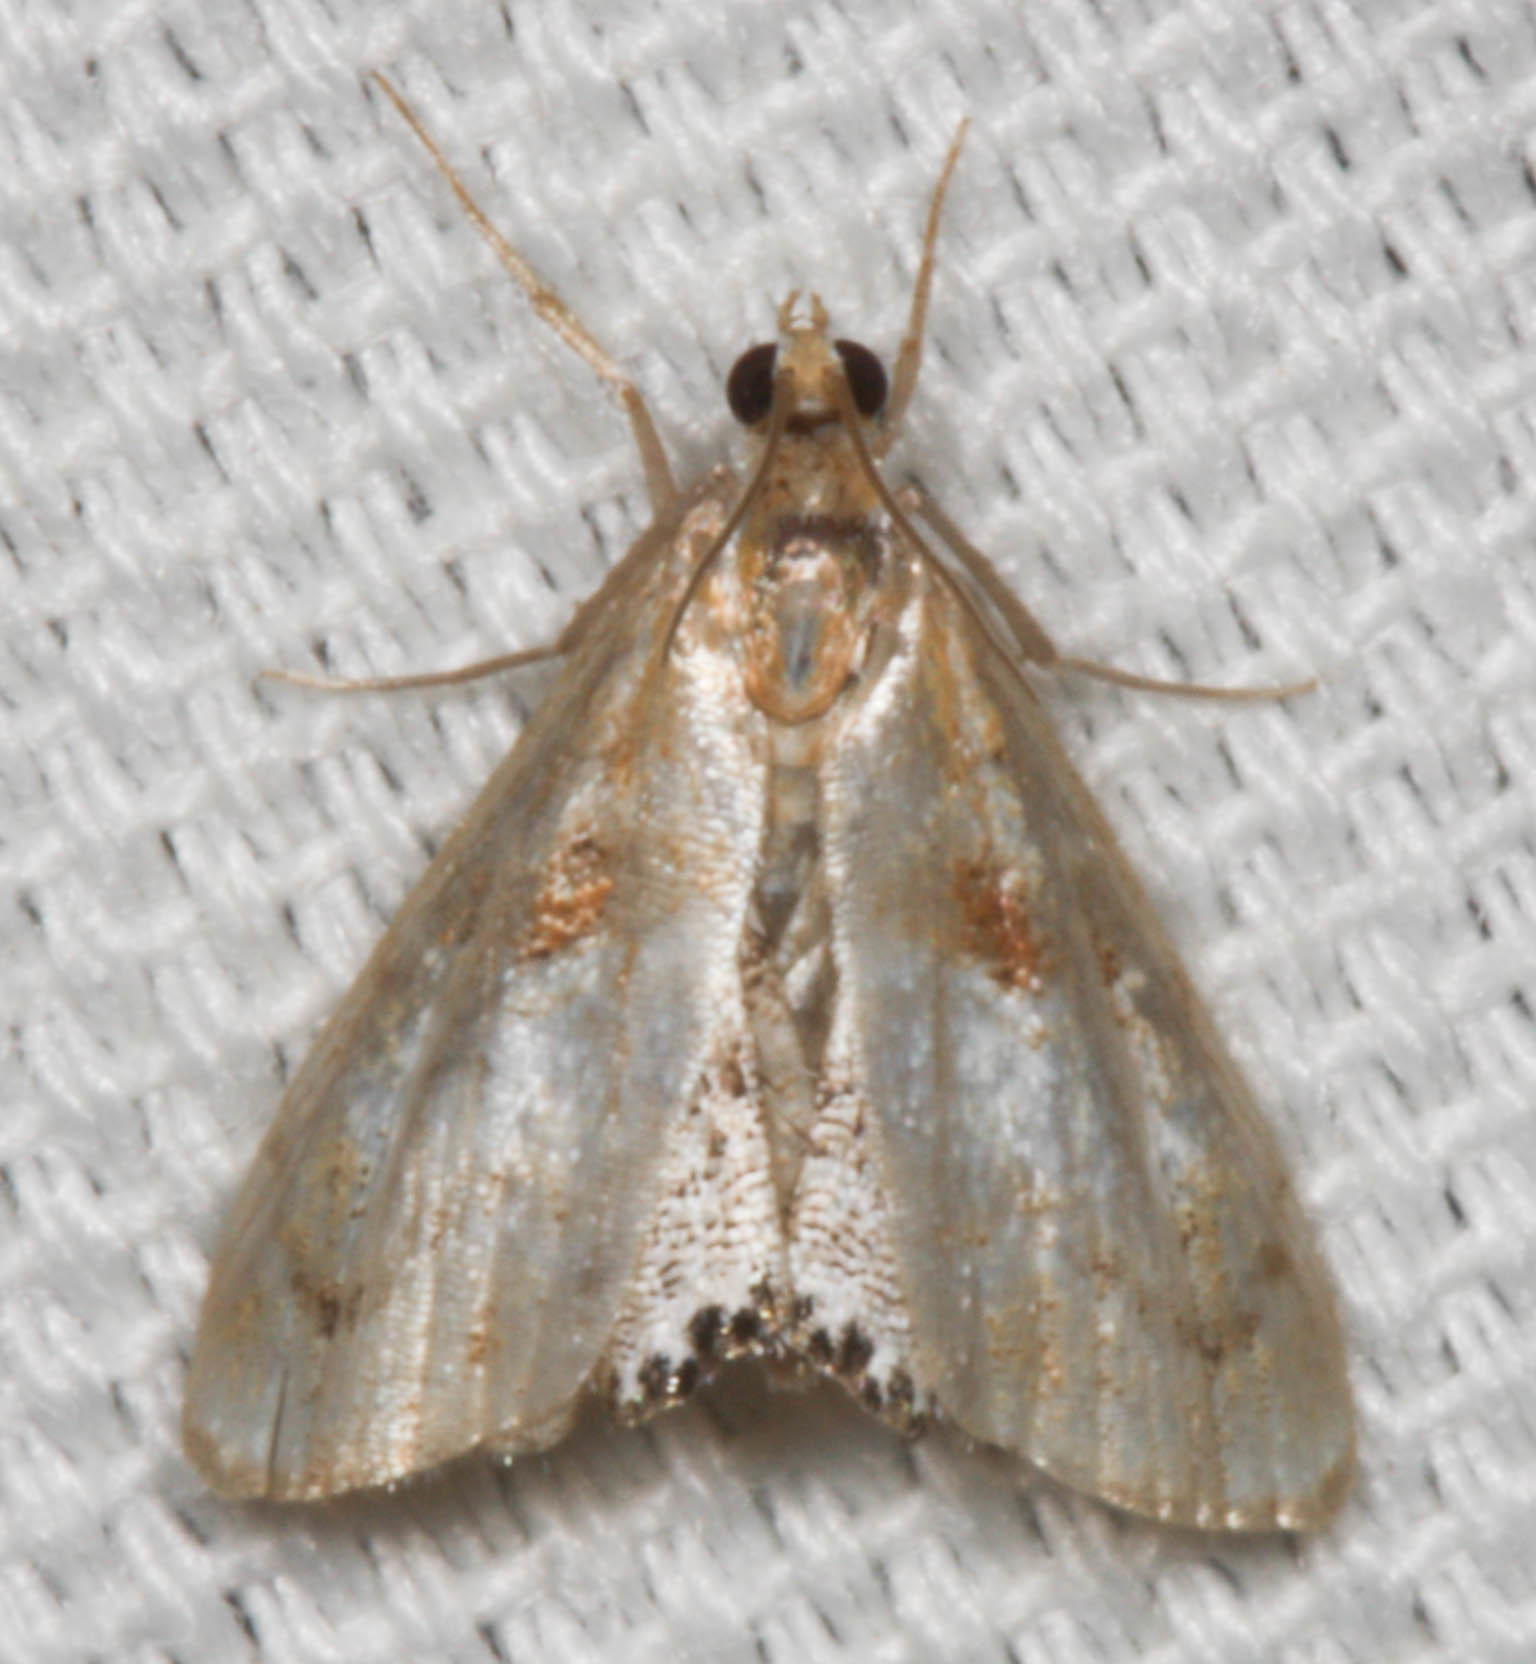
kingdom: Animalia
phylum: Arthropoda
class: Insecta
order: Lepidoptera
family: Crambidae
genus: Dicymolomia
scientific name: Dicymolomia metalliferalis
